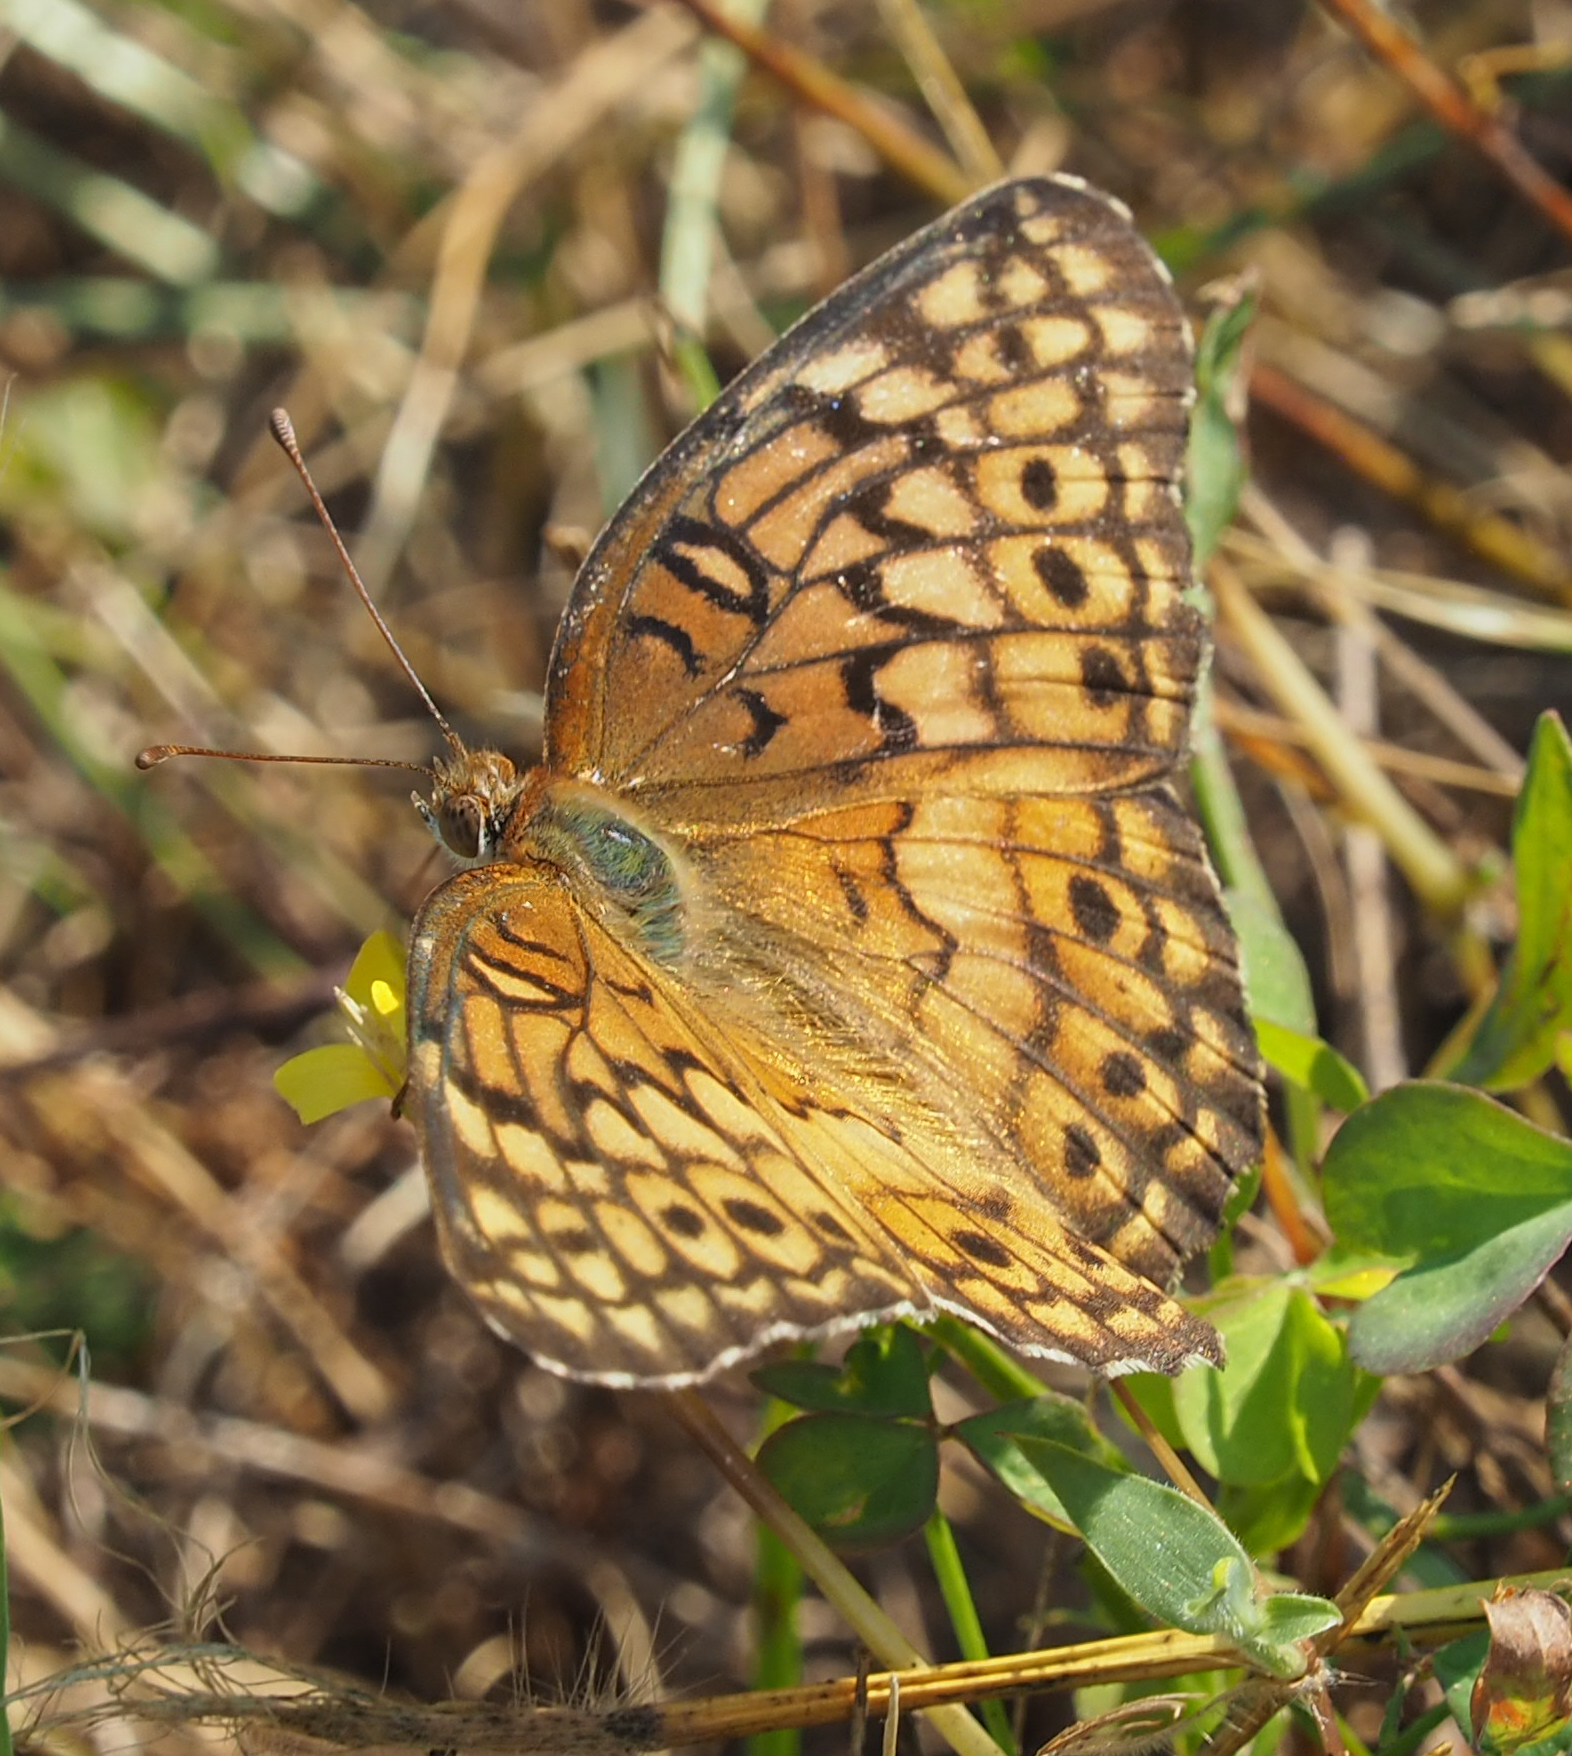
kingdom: Animalia
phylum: Arthropoda
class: Insecta
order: Lepidoptera
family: Nymphalidae
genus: Euptoieta
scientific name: Euptoieta claudia
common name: Variegated fritillary
